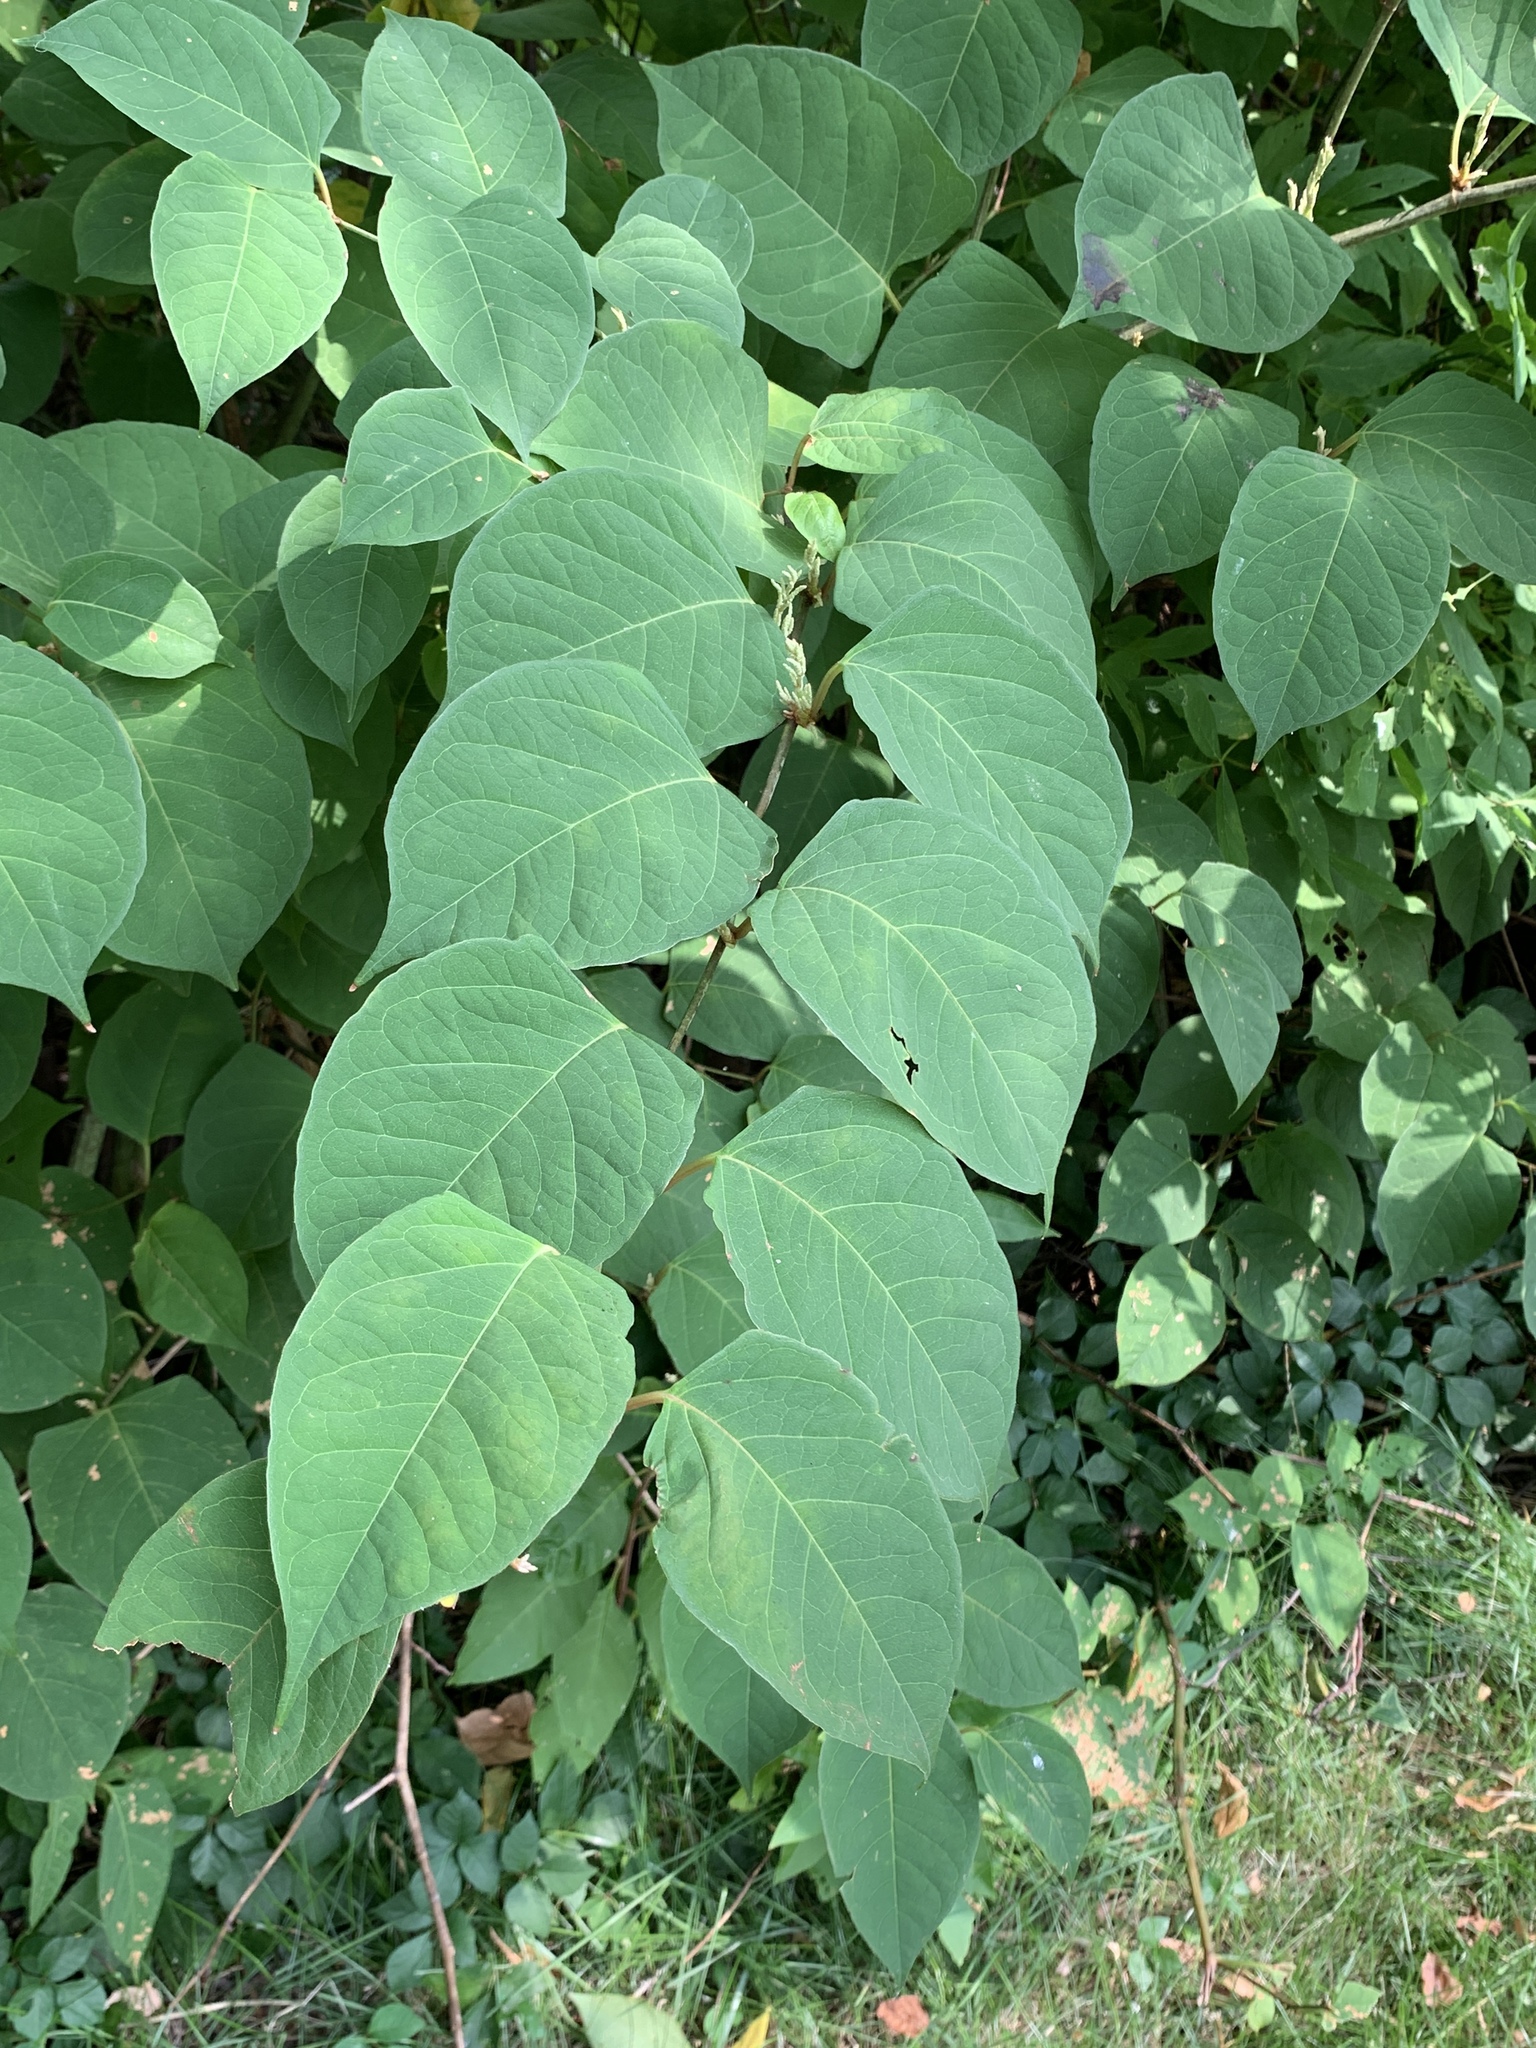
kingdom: Plantae
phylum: Tracheophyta
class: Magnoliopsida
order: Caryophyllales
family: Polygonaceae
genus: Reynoutria
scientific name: Reynoutria japonica
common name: Japanese knotweed
